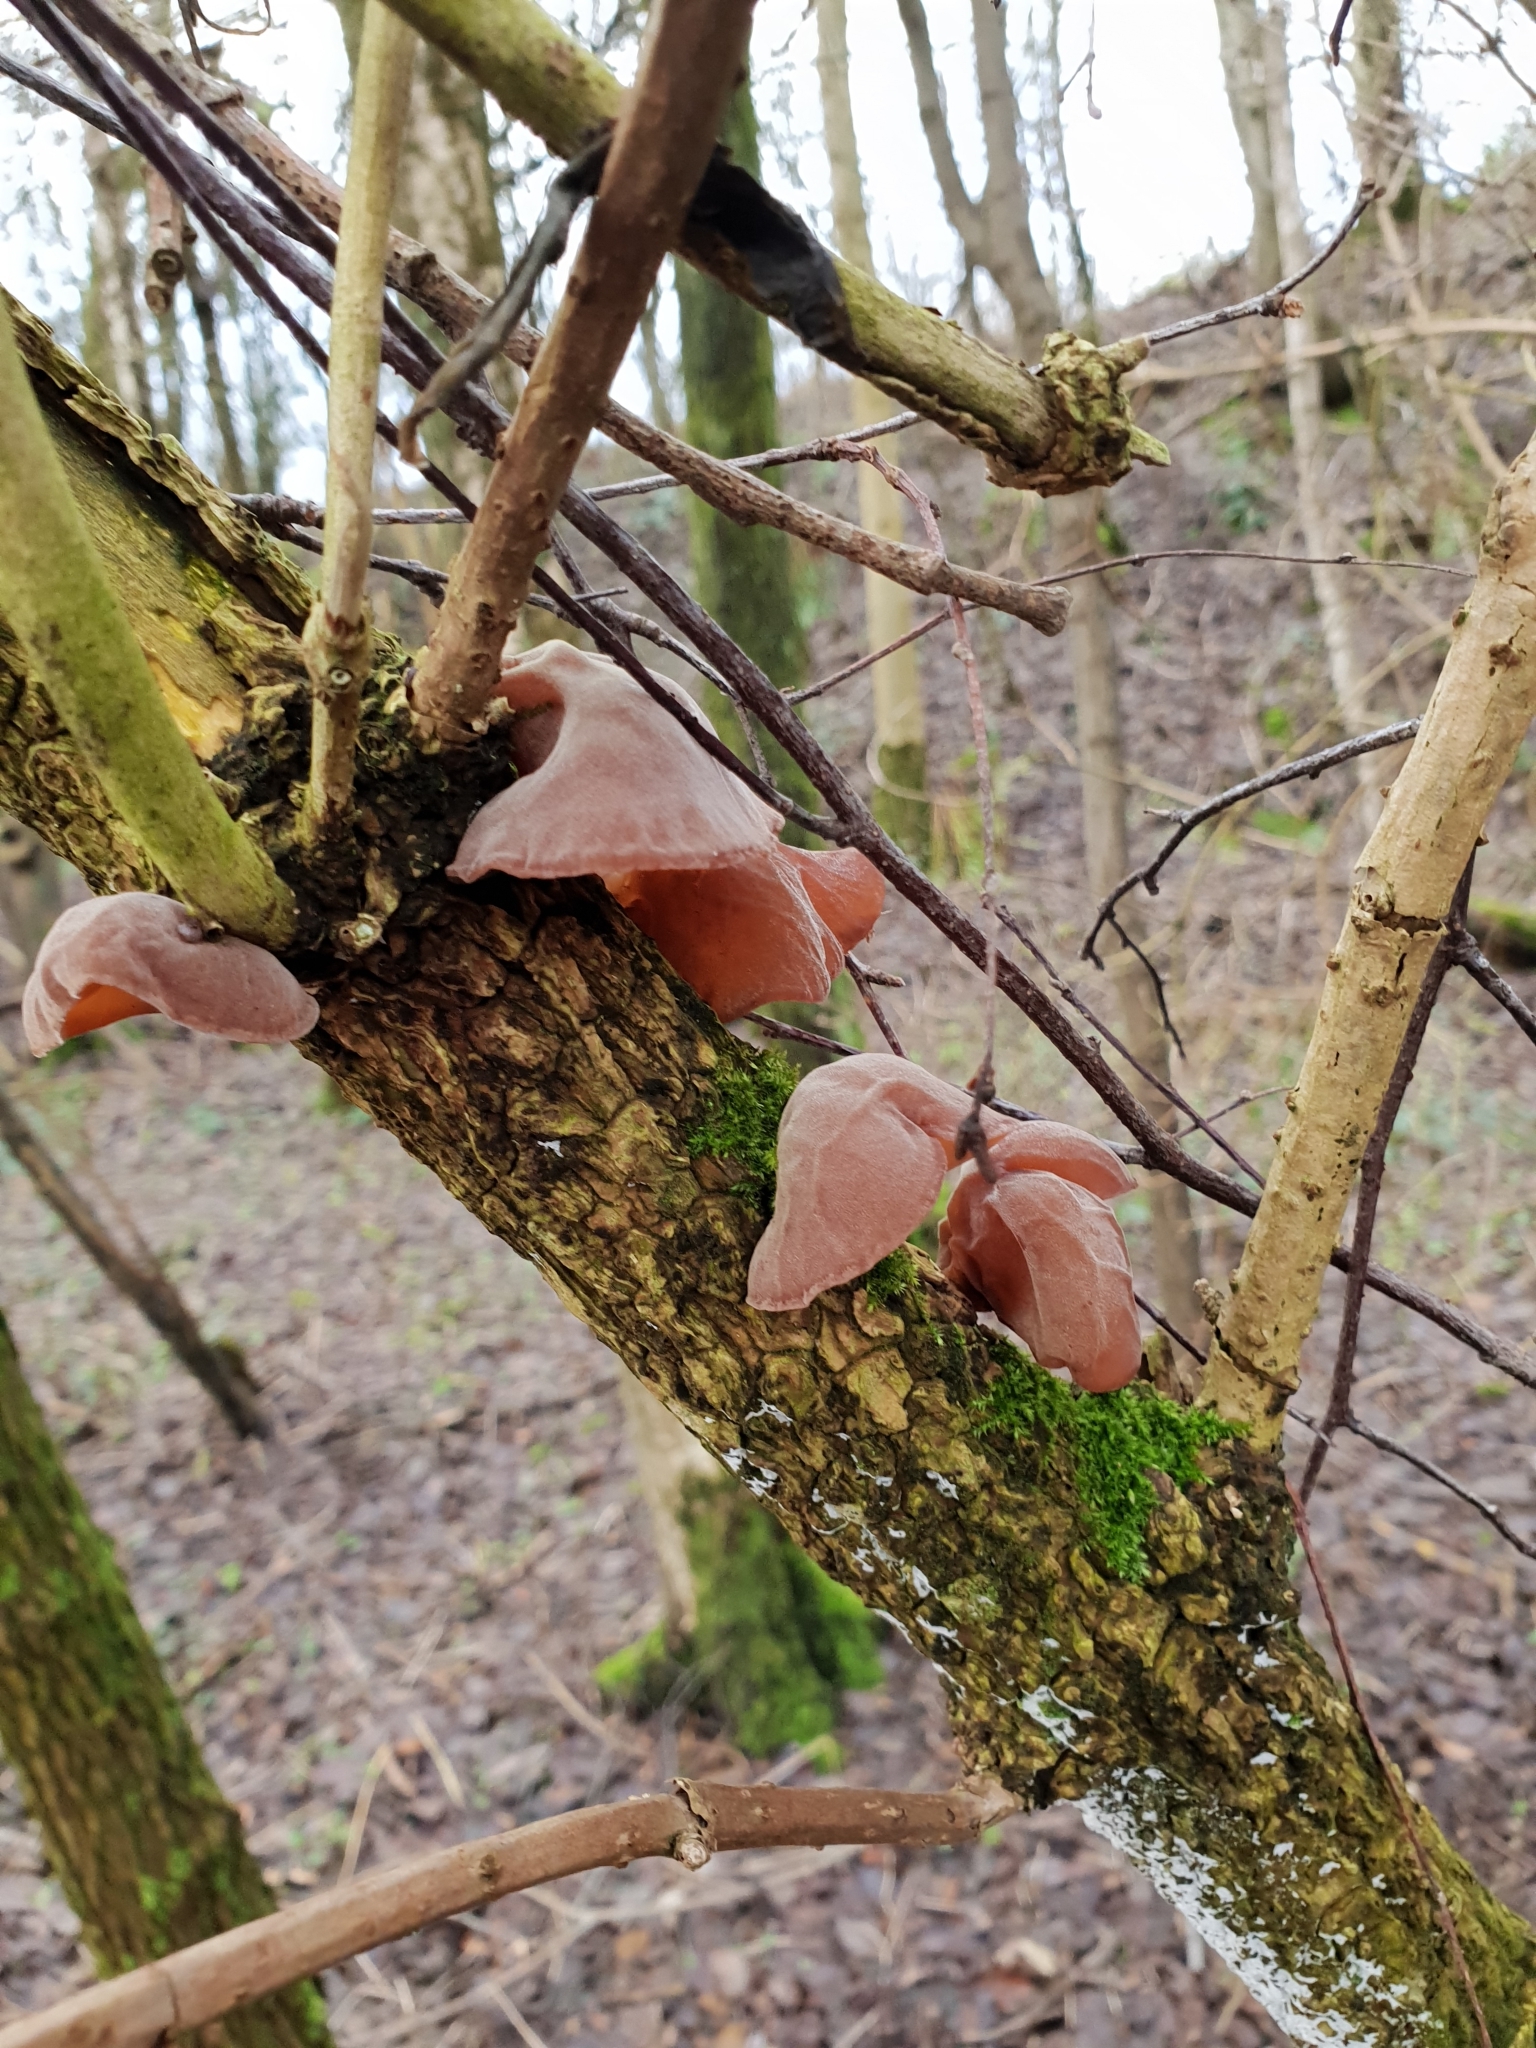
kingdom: Fungi
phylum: Basidiomycota
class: Agaricomycetes
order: Auriculariales
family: Auriculariaceae
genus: Auricularia
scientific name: Auricularia auricula-judae
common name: Jelly ear
